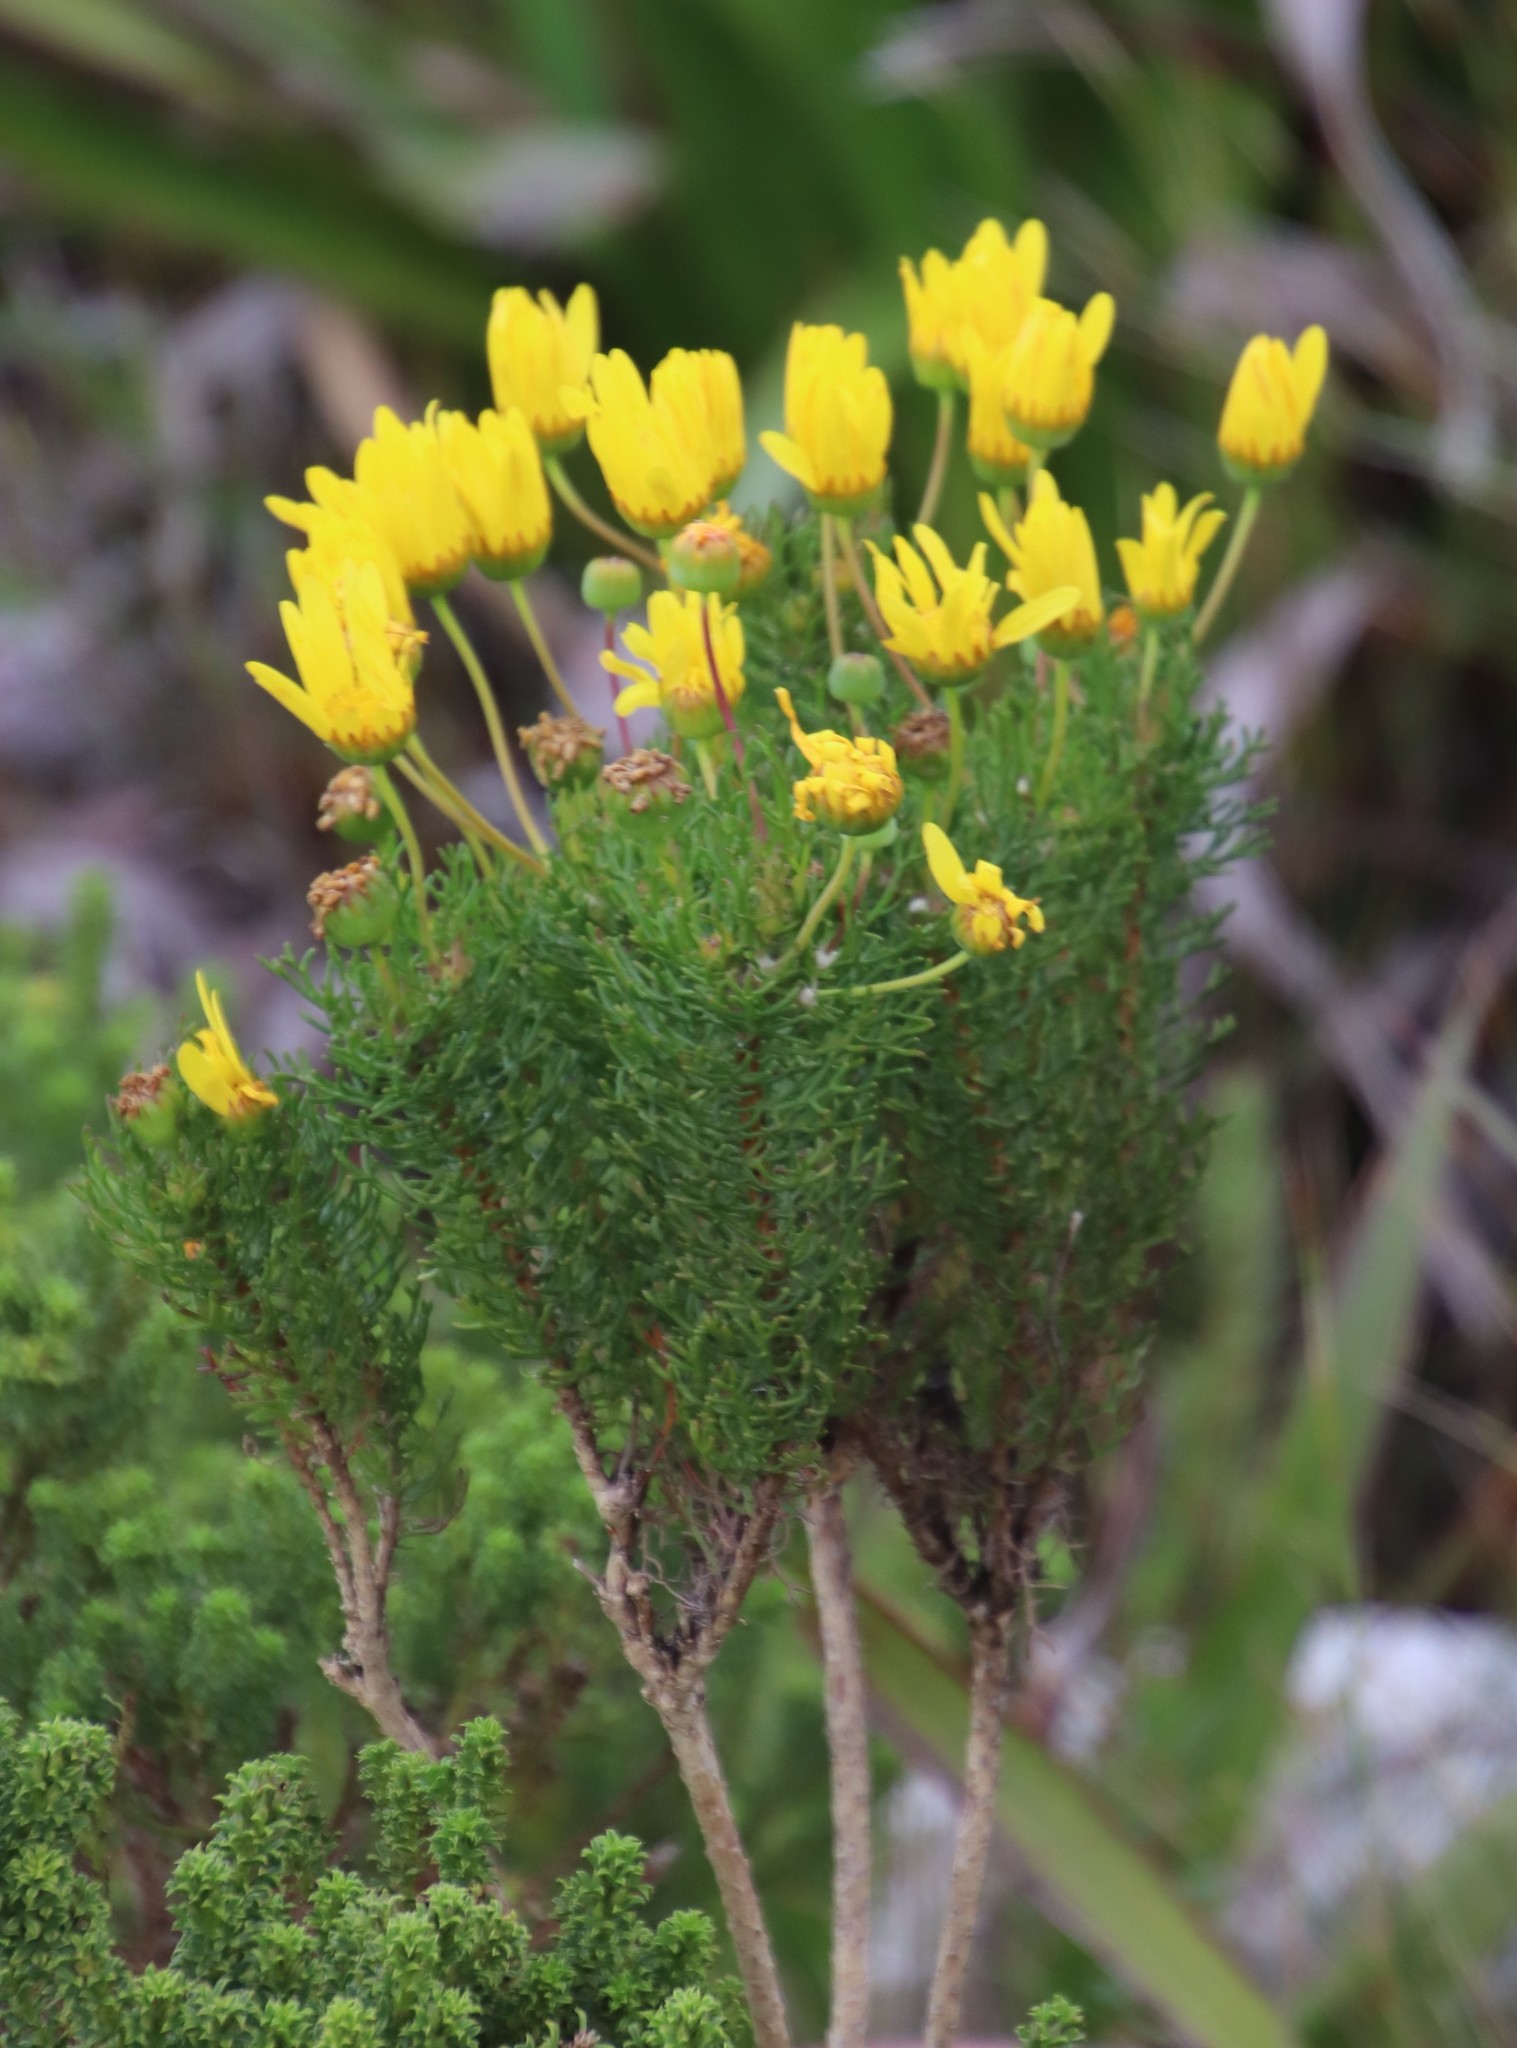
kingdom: Plantae
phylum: Tracheophyta
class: Magnoliopsida
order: Asterales
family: Asteraceae
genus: Euryops
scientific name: Euryops abrotanifolius
